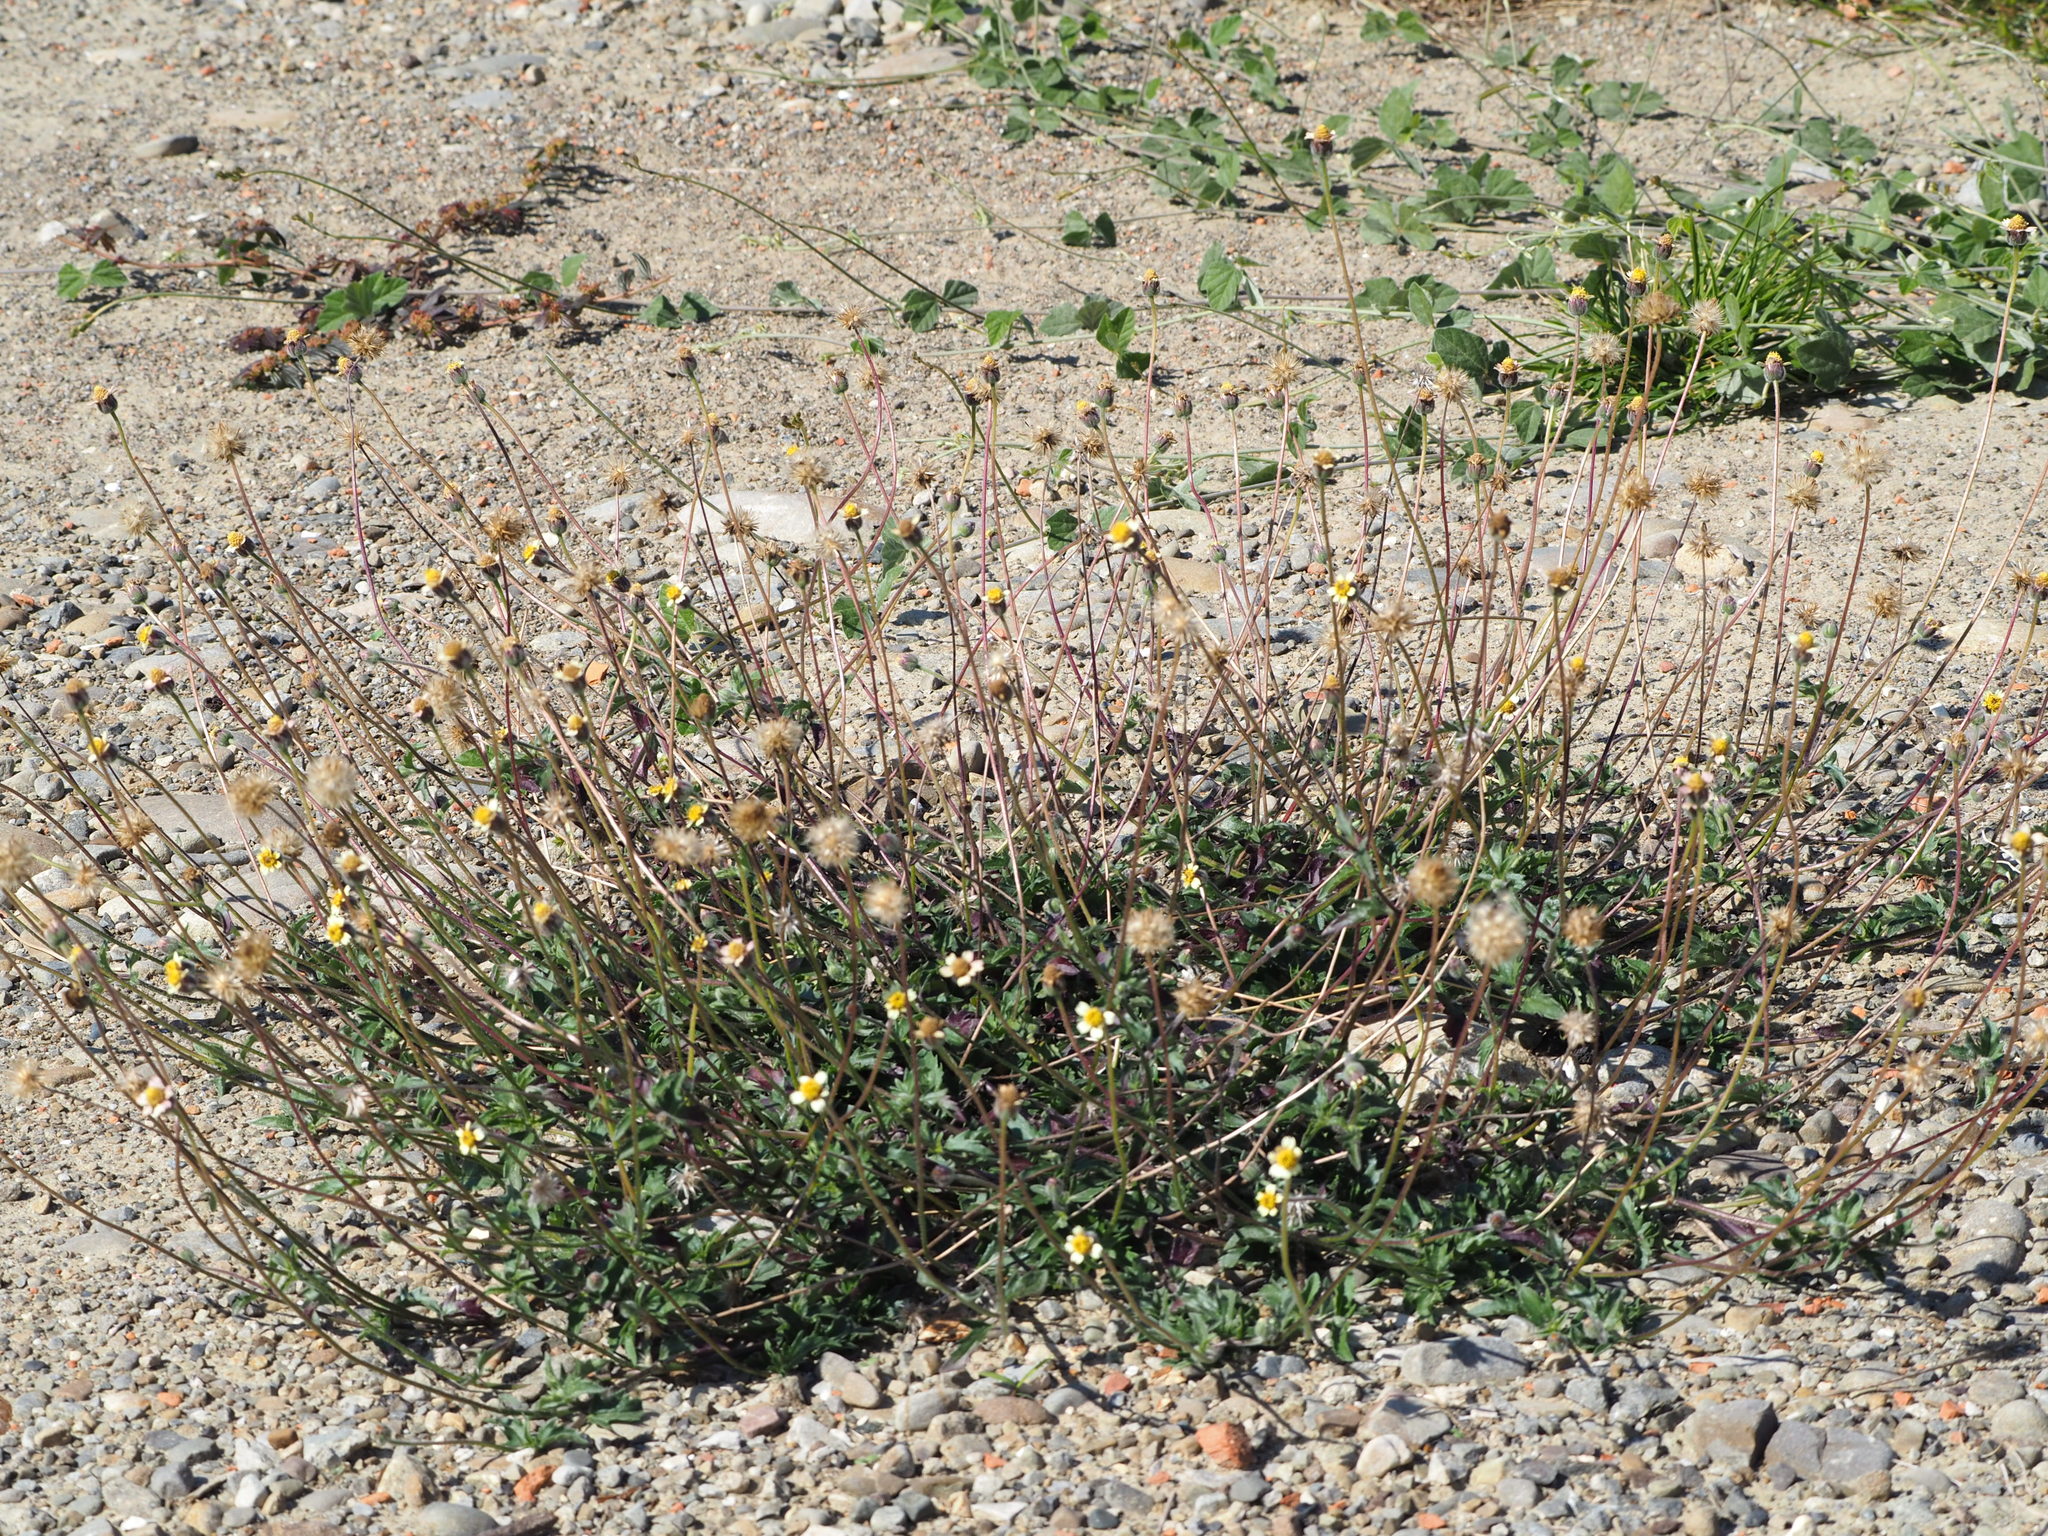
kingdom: Plantae
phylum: Tracheophyta
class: Magnoliopsida
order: Asterales
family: Asteraceae
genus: Tridax
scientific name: Tridax procumbens
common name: Coatbuttons
